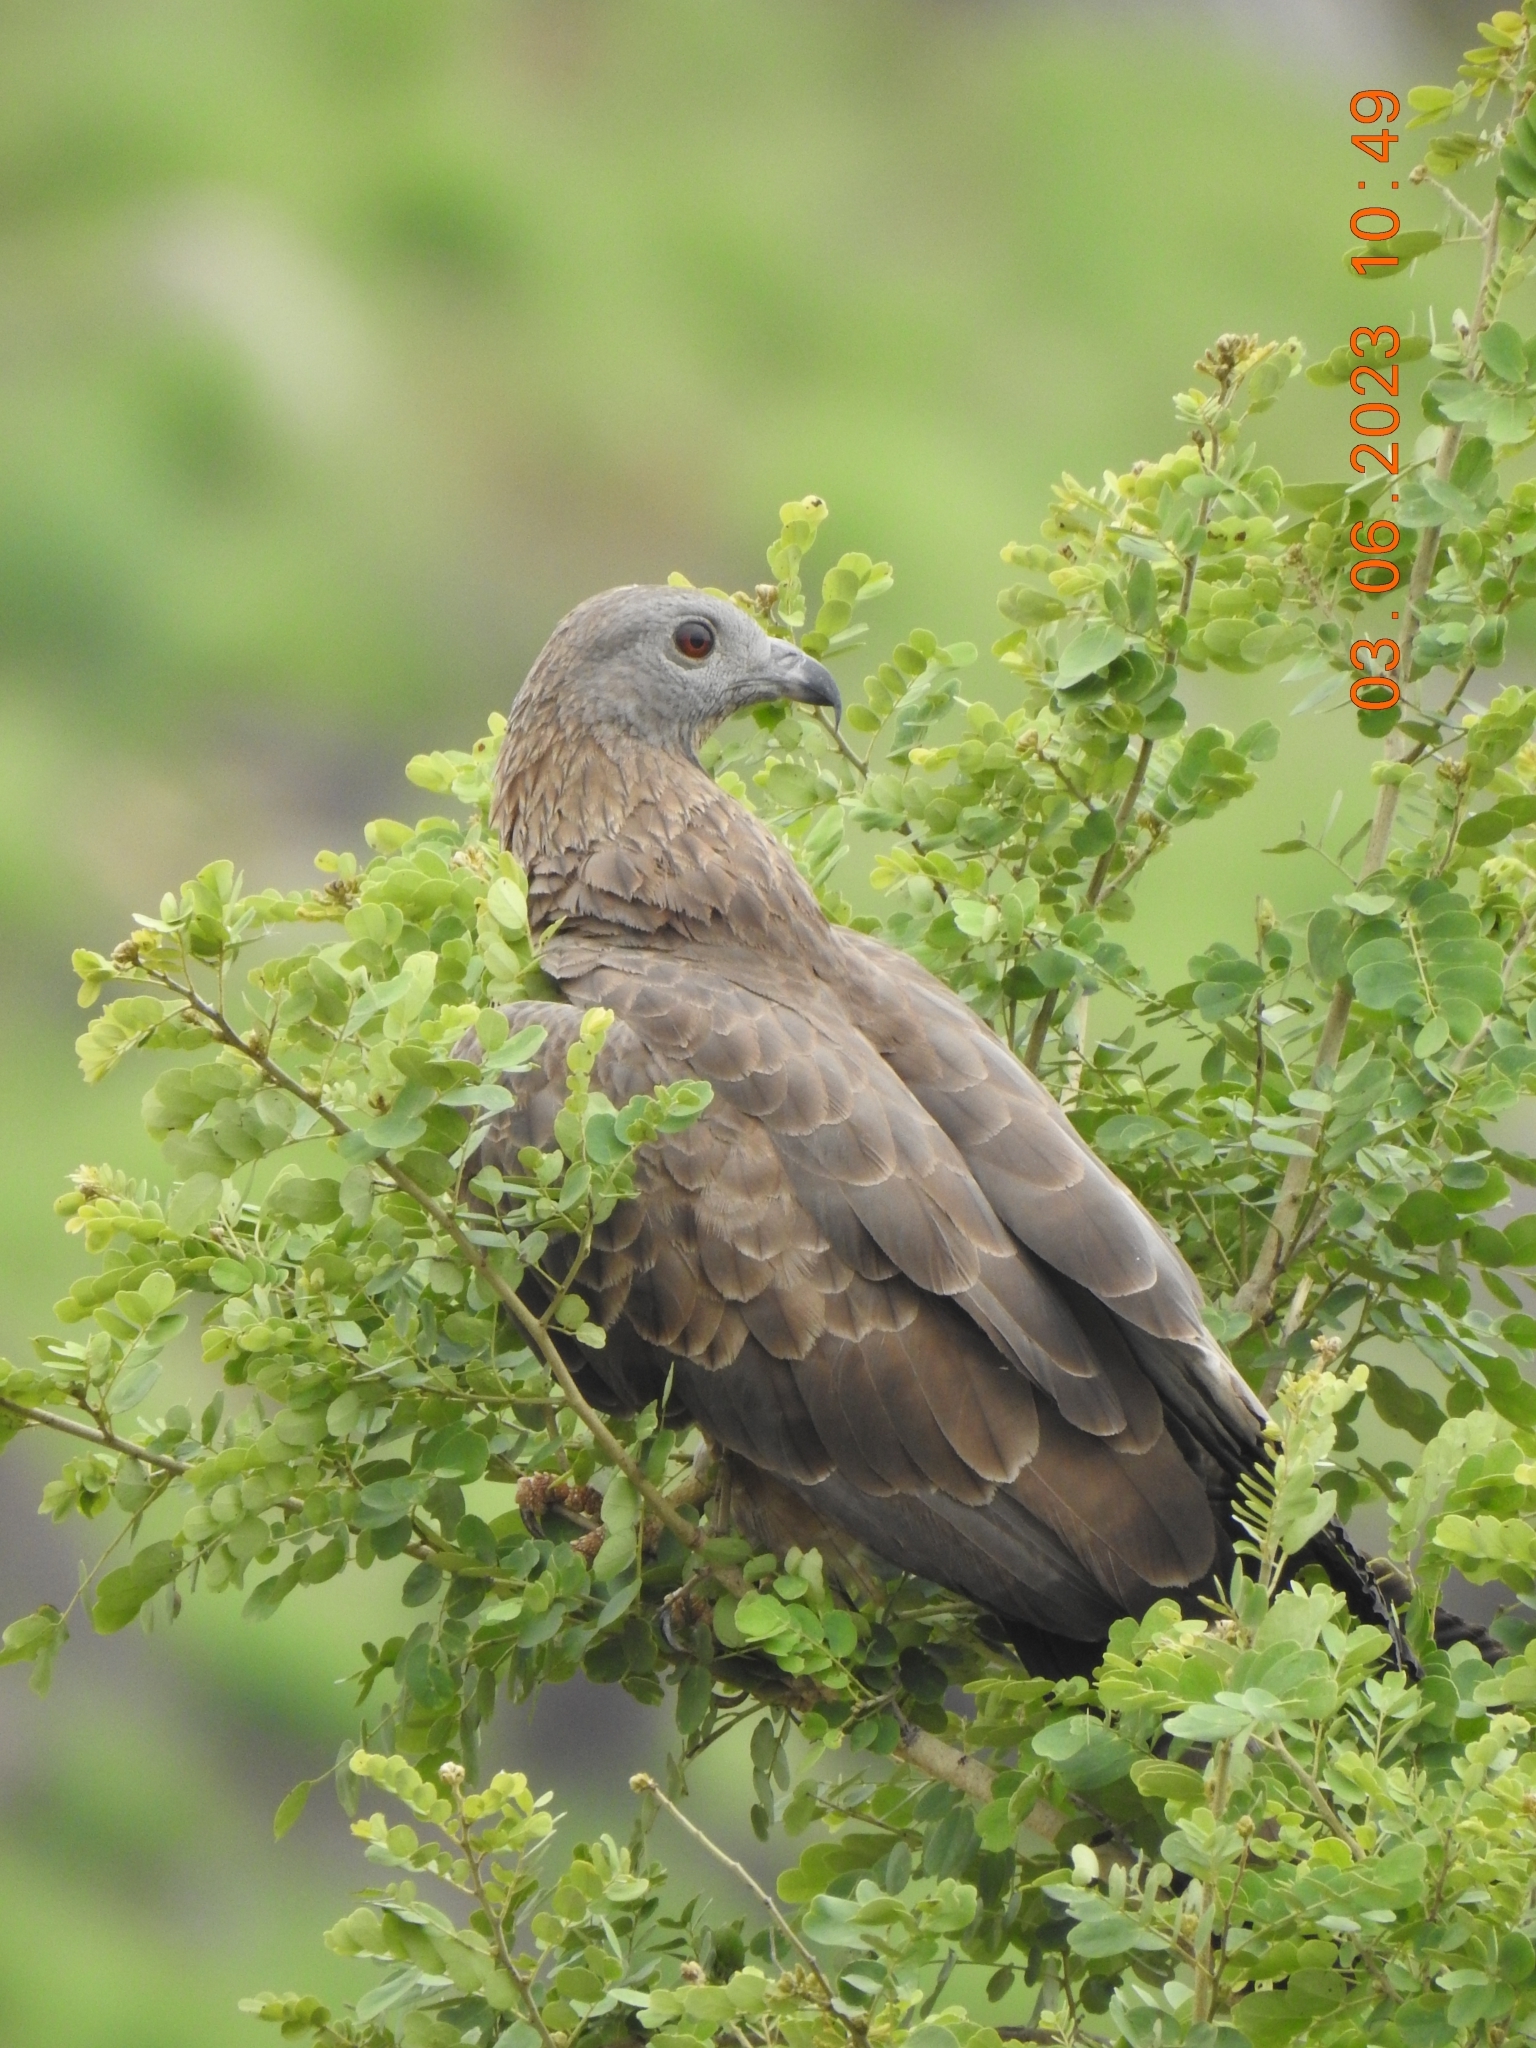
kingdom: Animalia
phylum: Chordata
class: Aves
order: Accipitriformes
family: Accipitridae
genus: Pernis
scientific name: Pernis ptilorhynchus
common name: Crested honey buzzard
